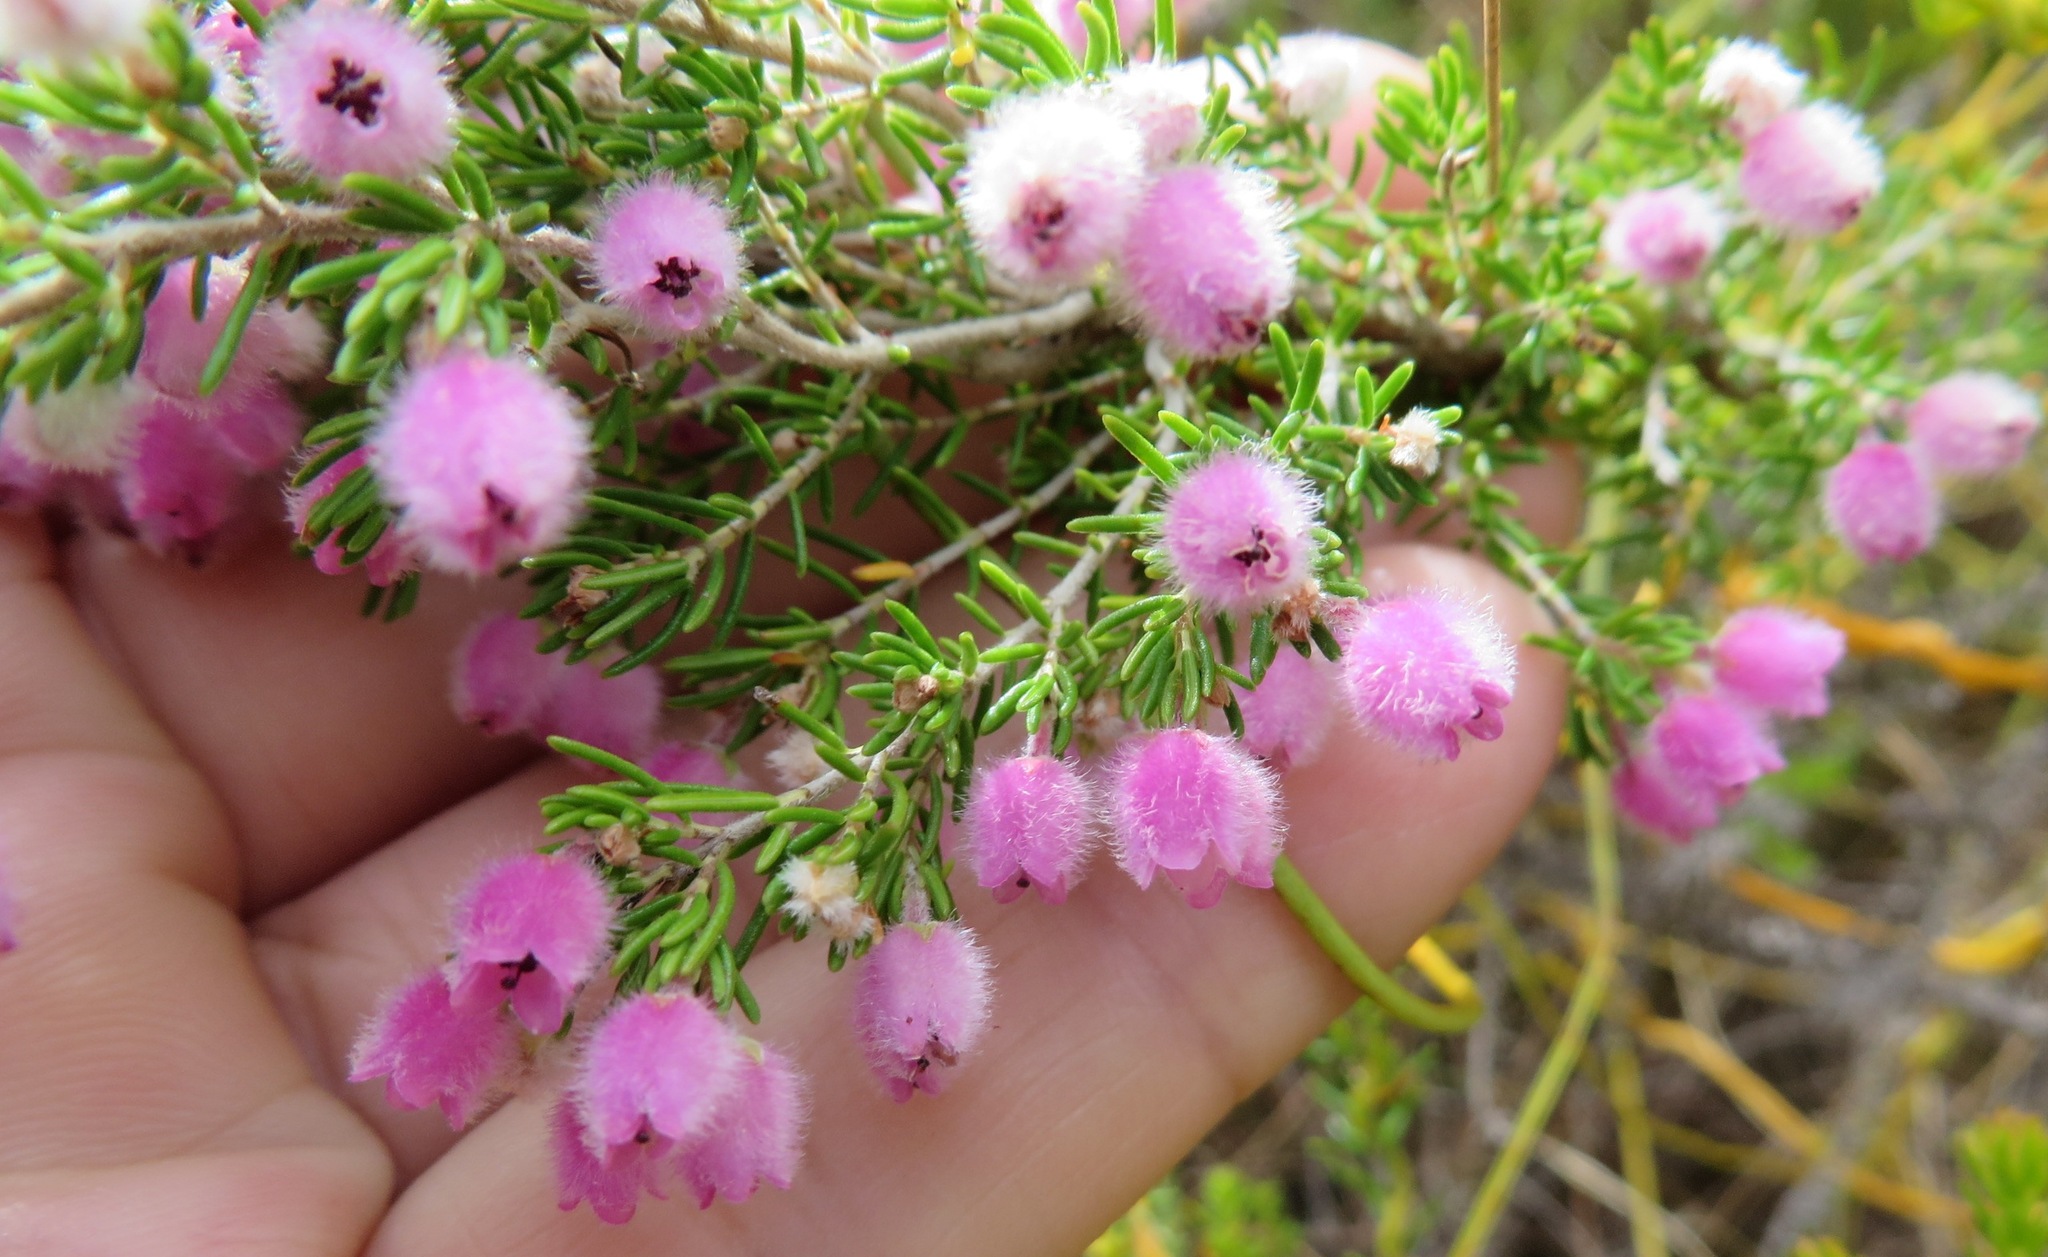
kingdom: Plantae
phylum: Tracheophyta
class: Magnoliopsida
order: Ericales
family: Ericaceae
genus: Erica
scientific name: Erica ovina
